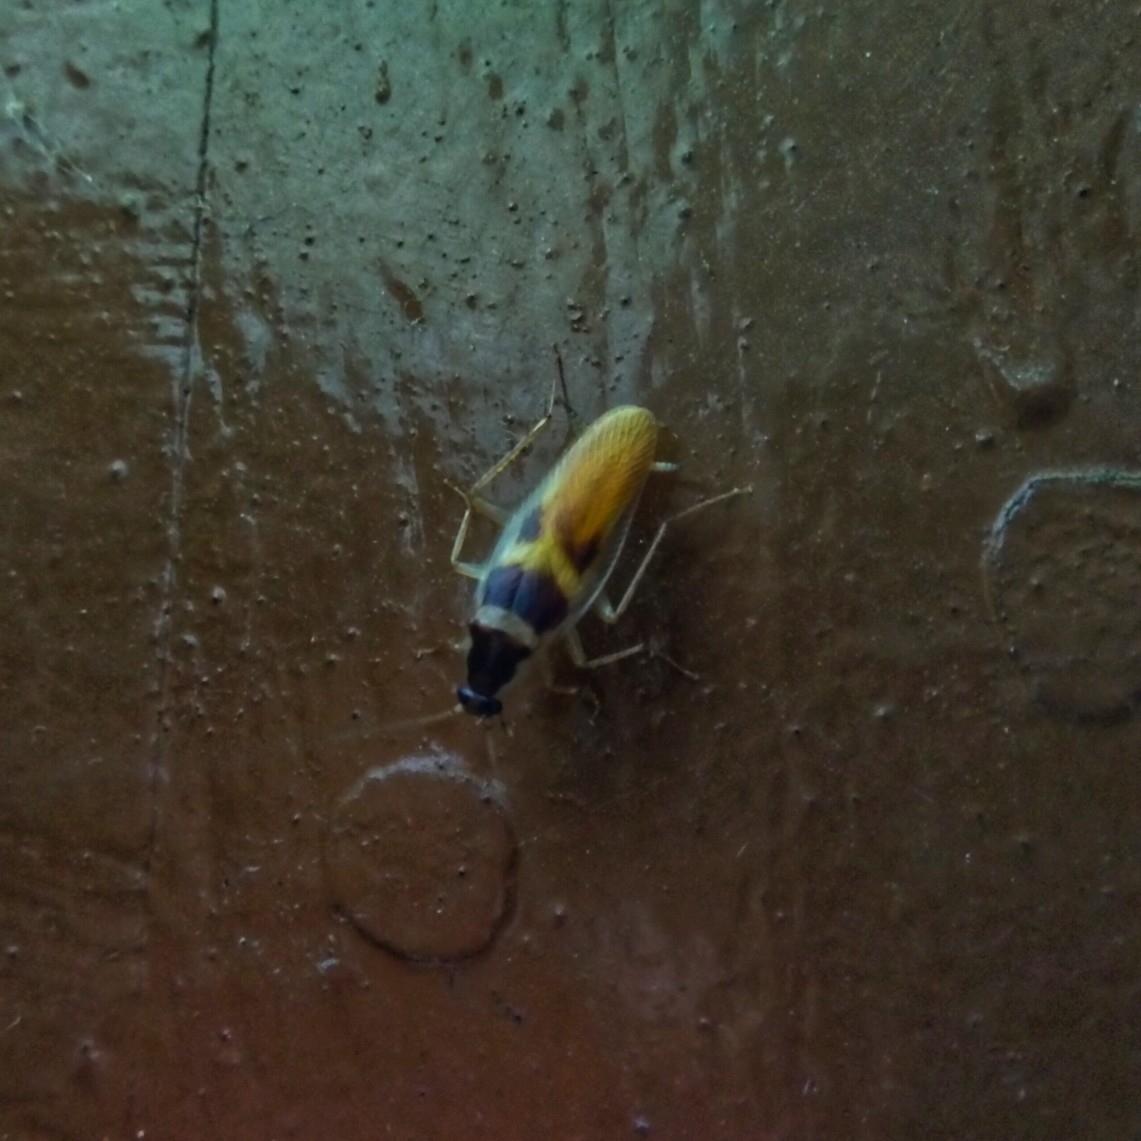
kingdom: Animalia
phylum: Arthropoda
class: Insecta
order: Blattodea
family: Ectobiidae
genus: Supella
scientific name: Supella longipalpa
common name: Brown-banded cockroach
